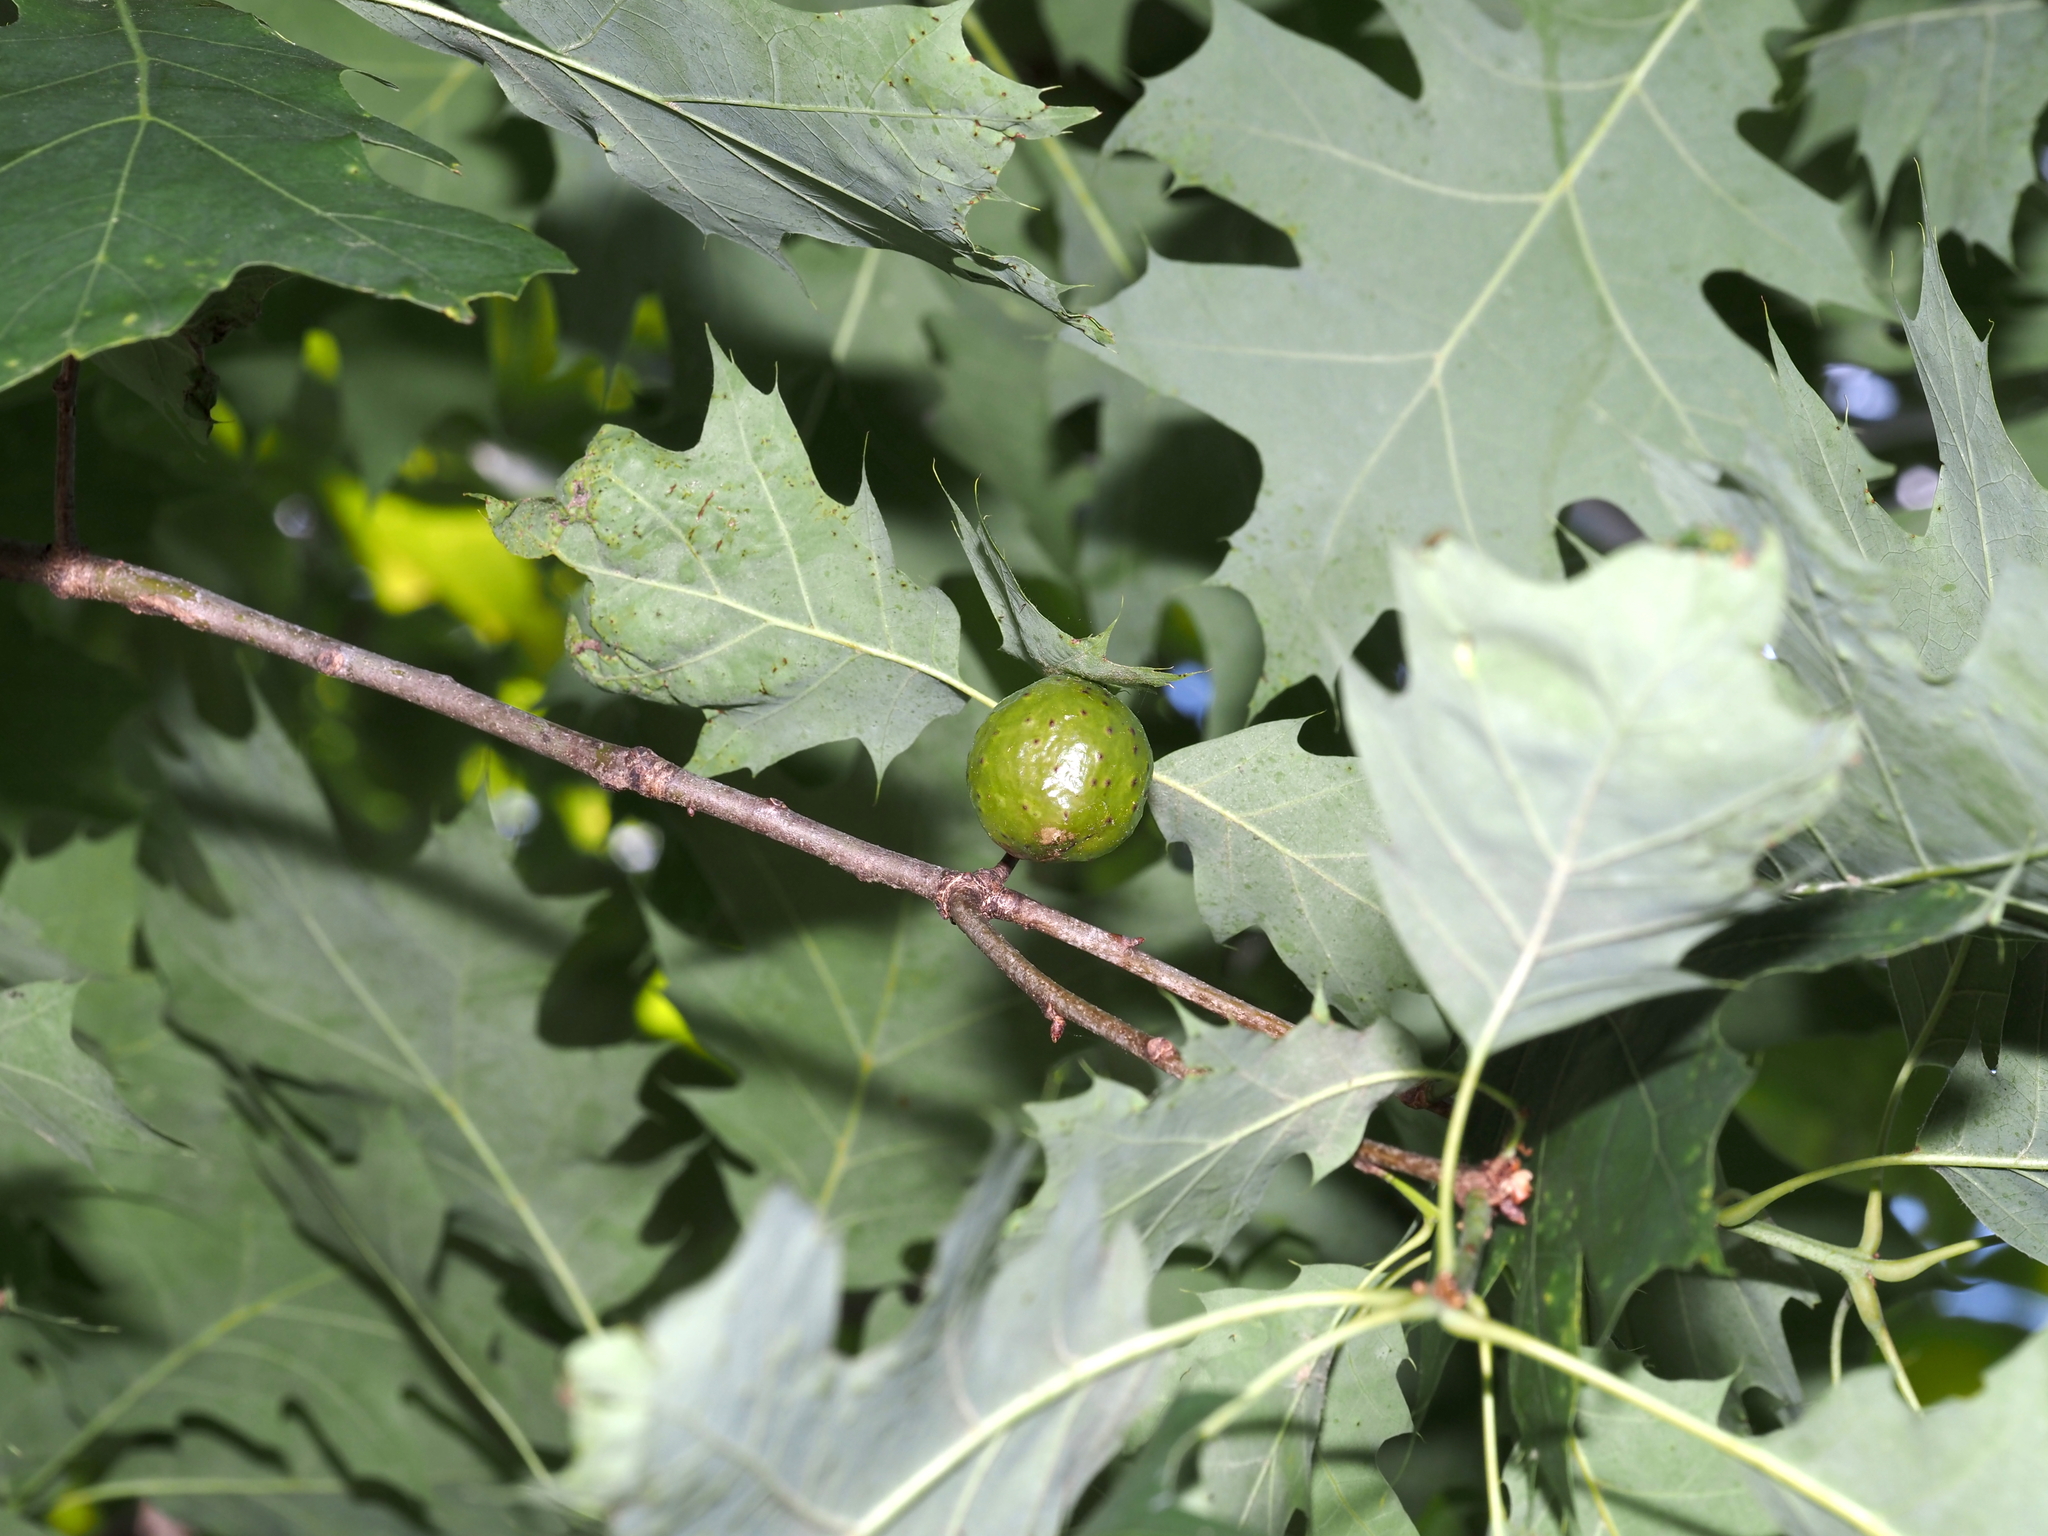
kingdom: Animalia
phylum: Arthropoda
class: Insecta
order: Hymenoptera
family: Cynipidae
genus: Amphibolips
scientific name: Amphibolips
